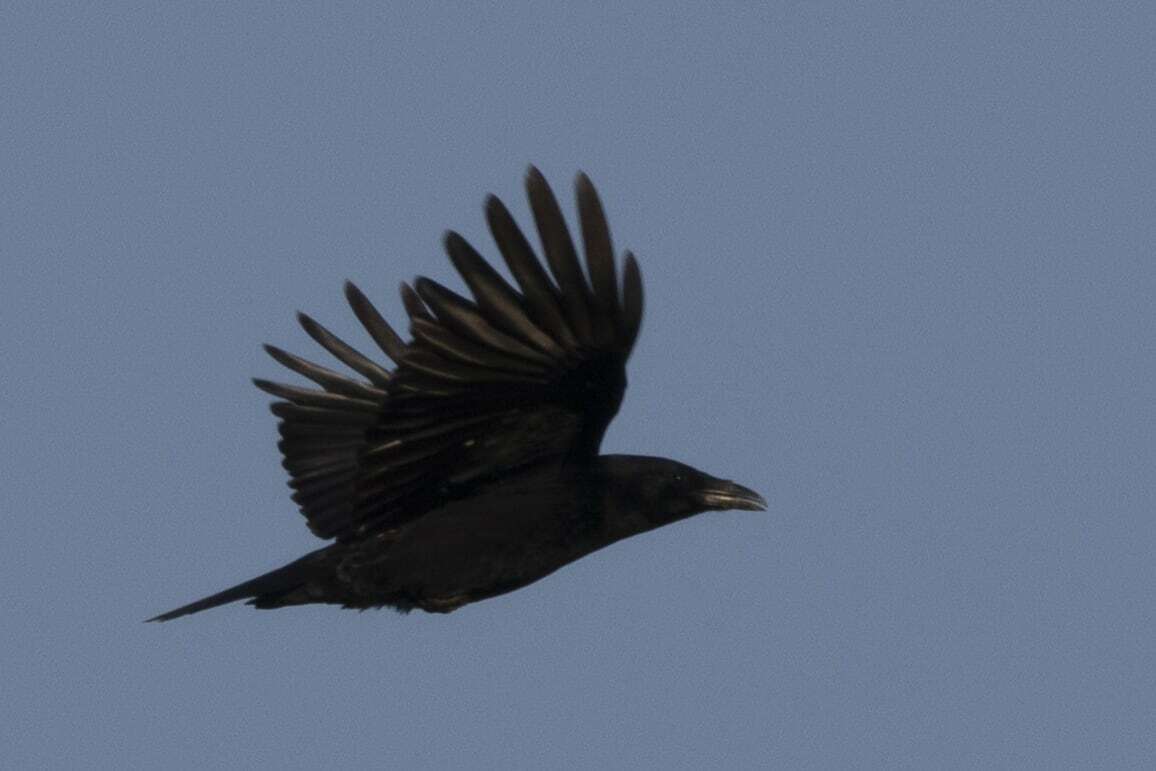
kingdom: Animalia
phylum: Chordata
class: Aves
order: Passeriformes
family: Corvidae
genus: Corvus
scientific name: Corvus corone
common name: Carrion crow
